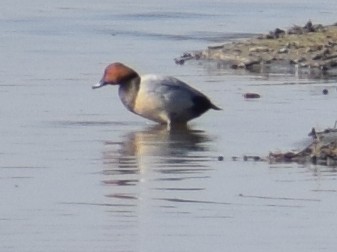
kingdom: Animalia
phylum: Chordata
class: Aves
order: Anseriformes
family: Anatidae
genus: Aythya
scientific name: Aythya ferina
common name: Common pochard
